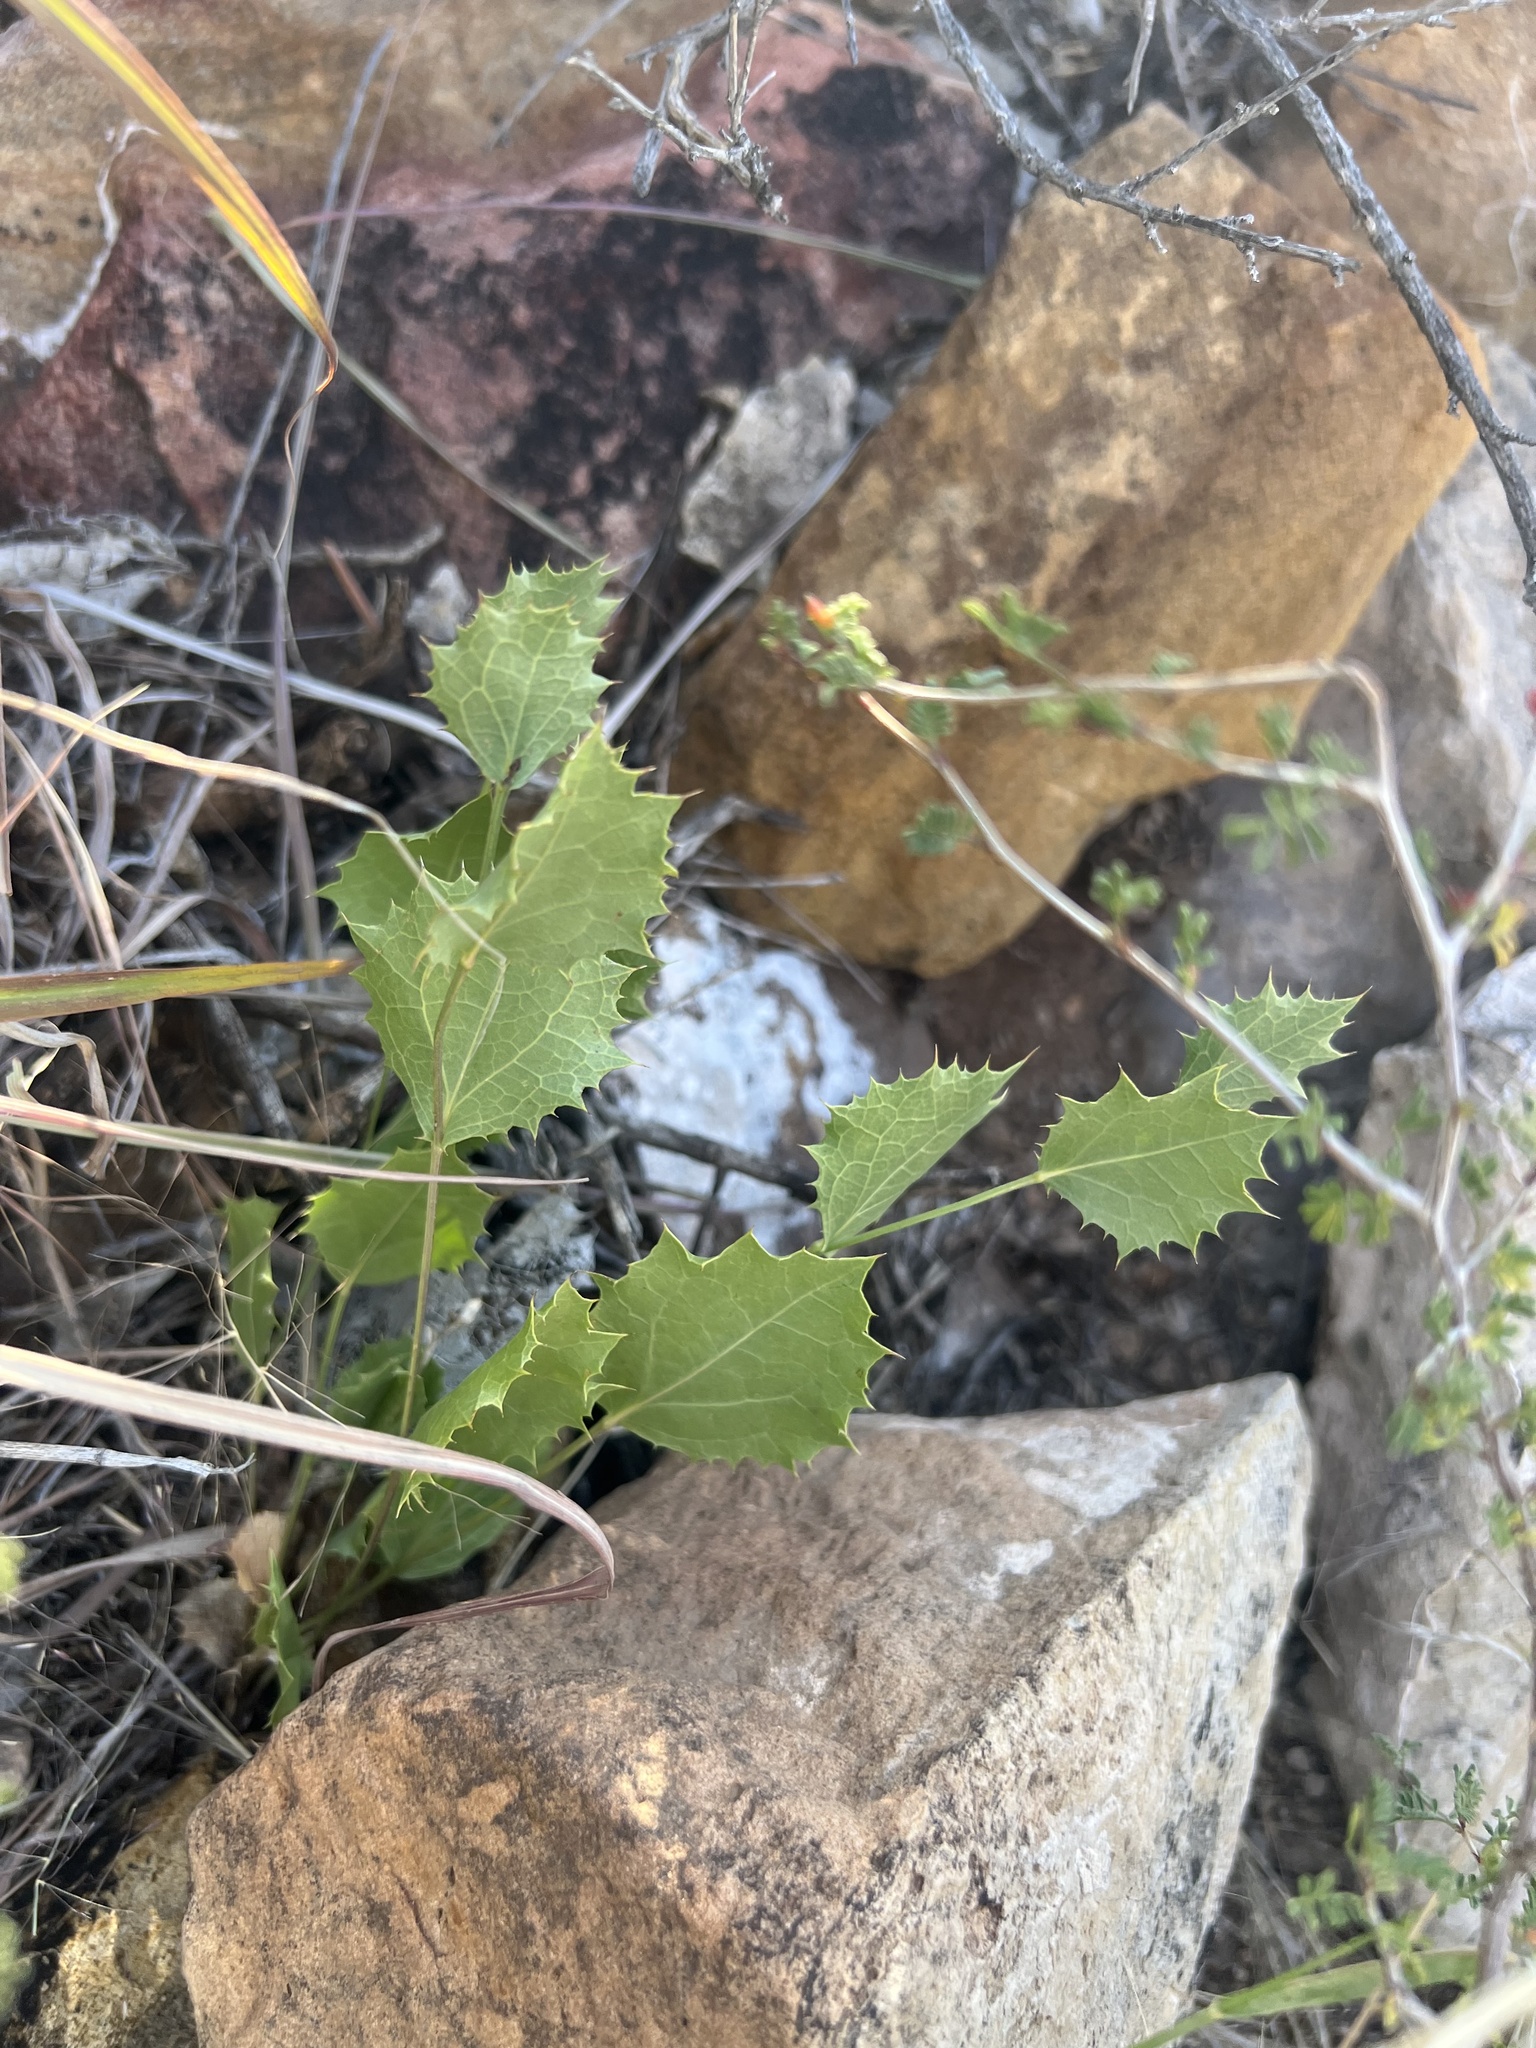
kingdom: Plantae
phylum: Tracheophyta
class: Magnoliopsida
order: Asterales
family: Asteraceae
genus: Acourtia
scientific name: Acourtia nana
